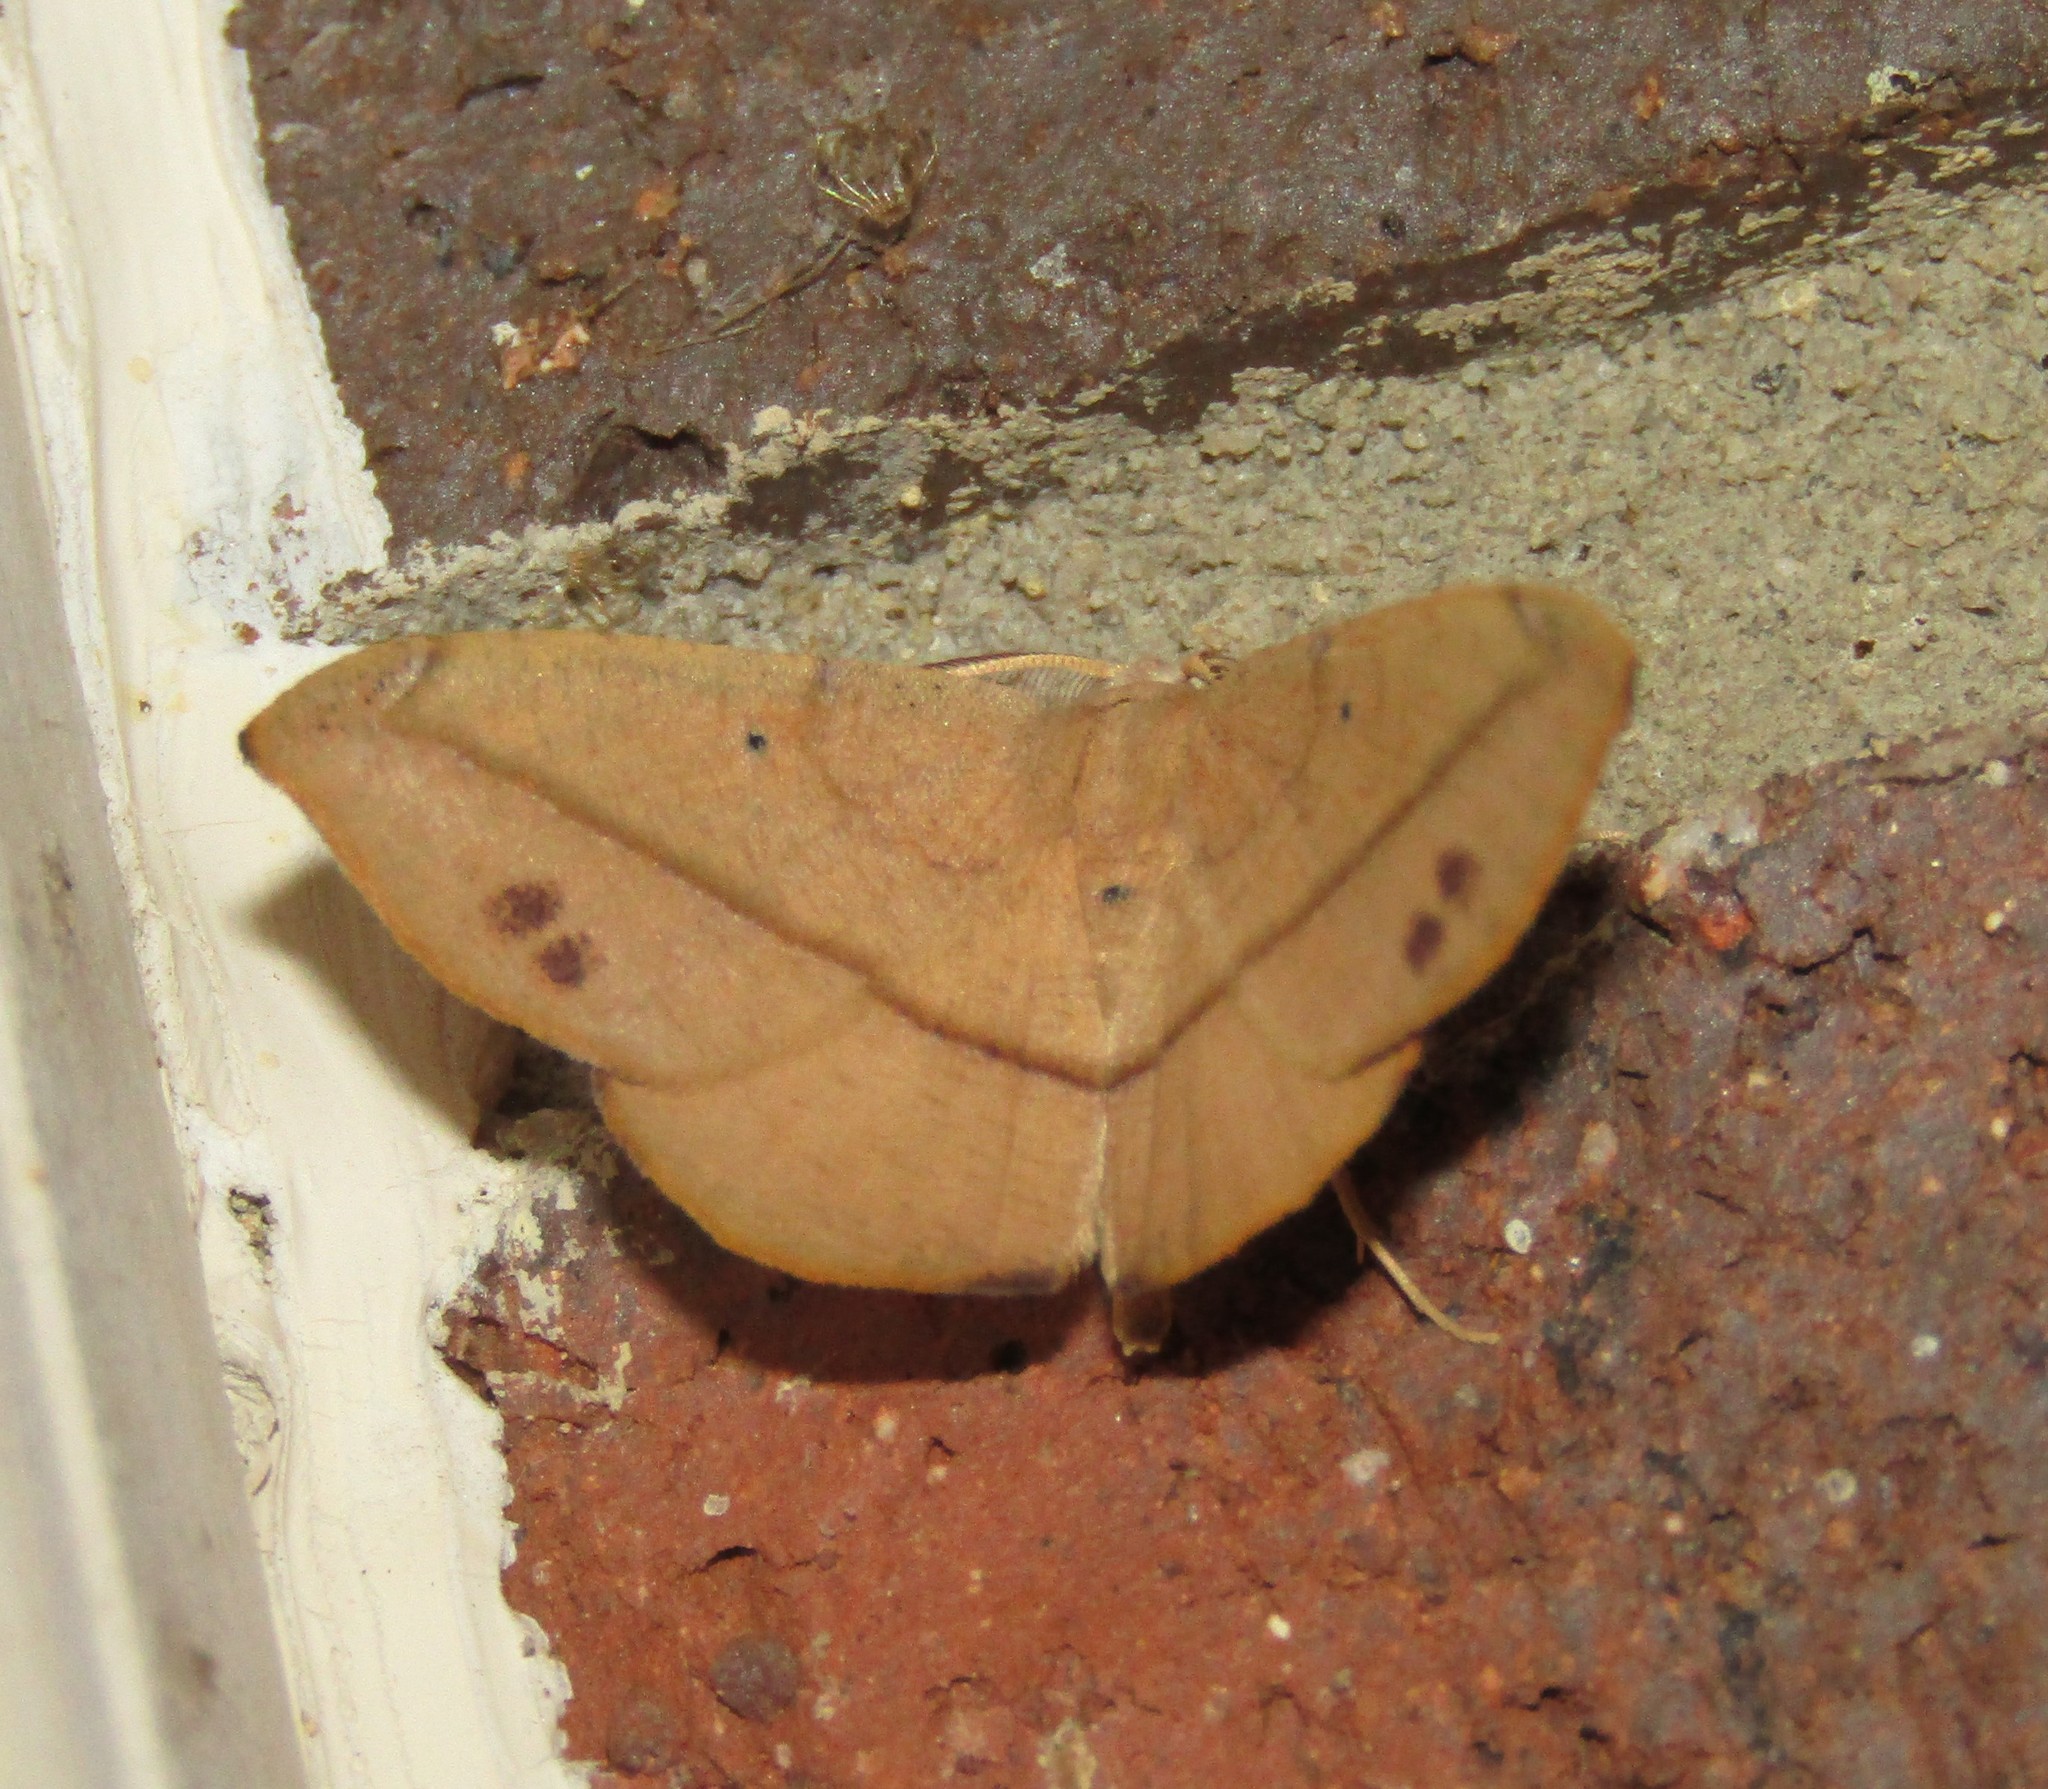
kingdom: Animalia
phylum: Arthropoda
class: Insecta
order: Lepidoptera
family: Geometridae
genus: Patalene
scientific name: Patalene olyzonaria
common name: Juniper geometer moth
